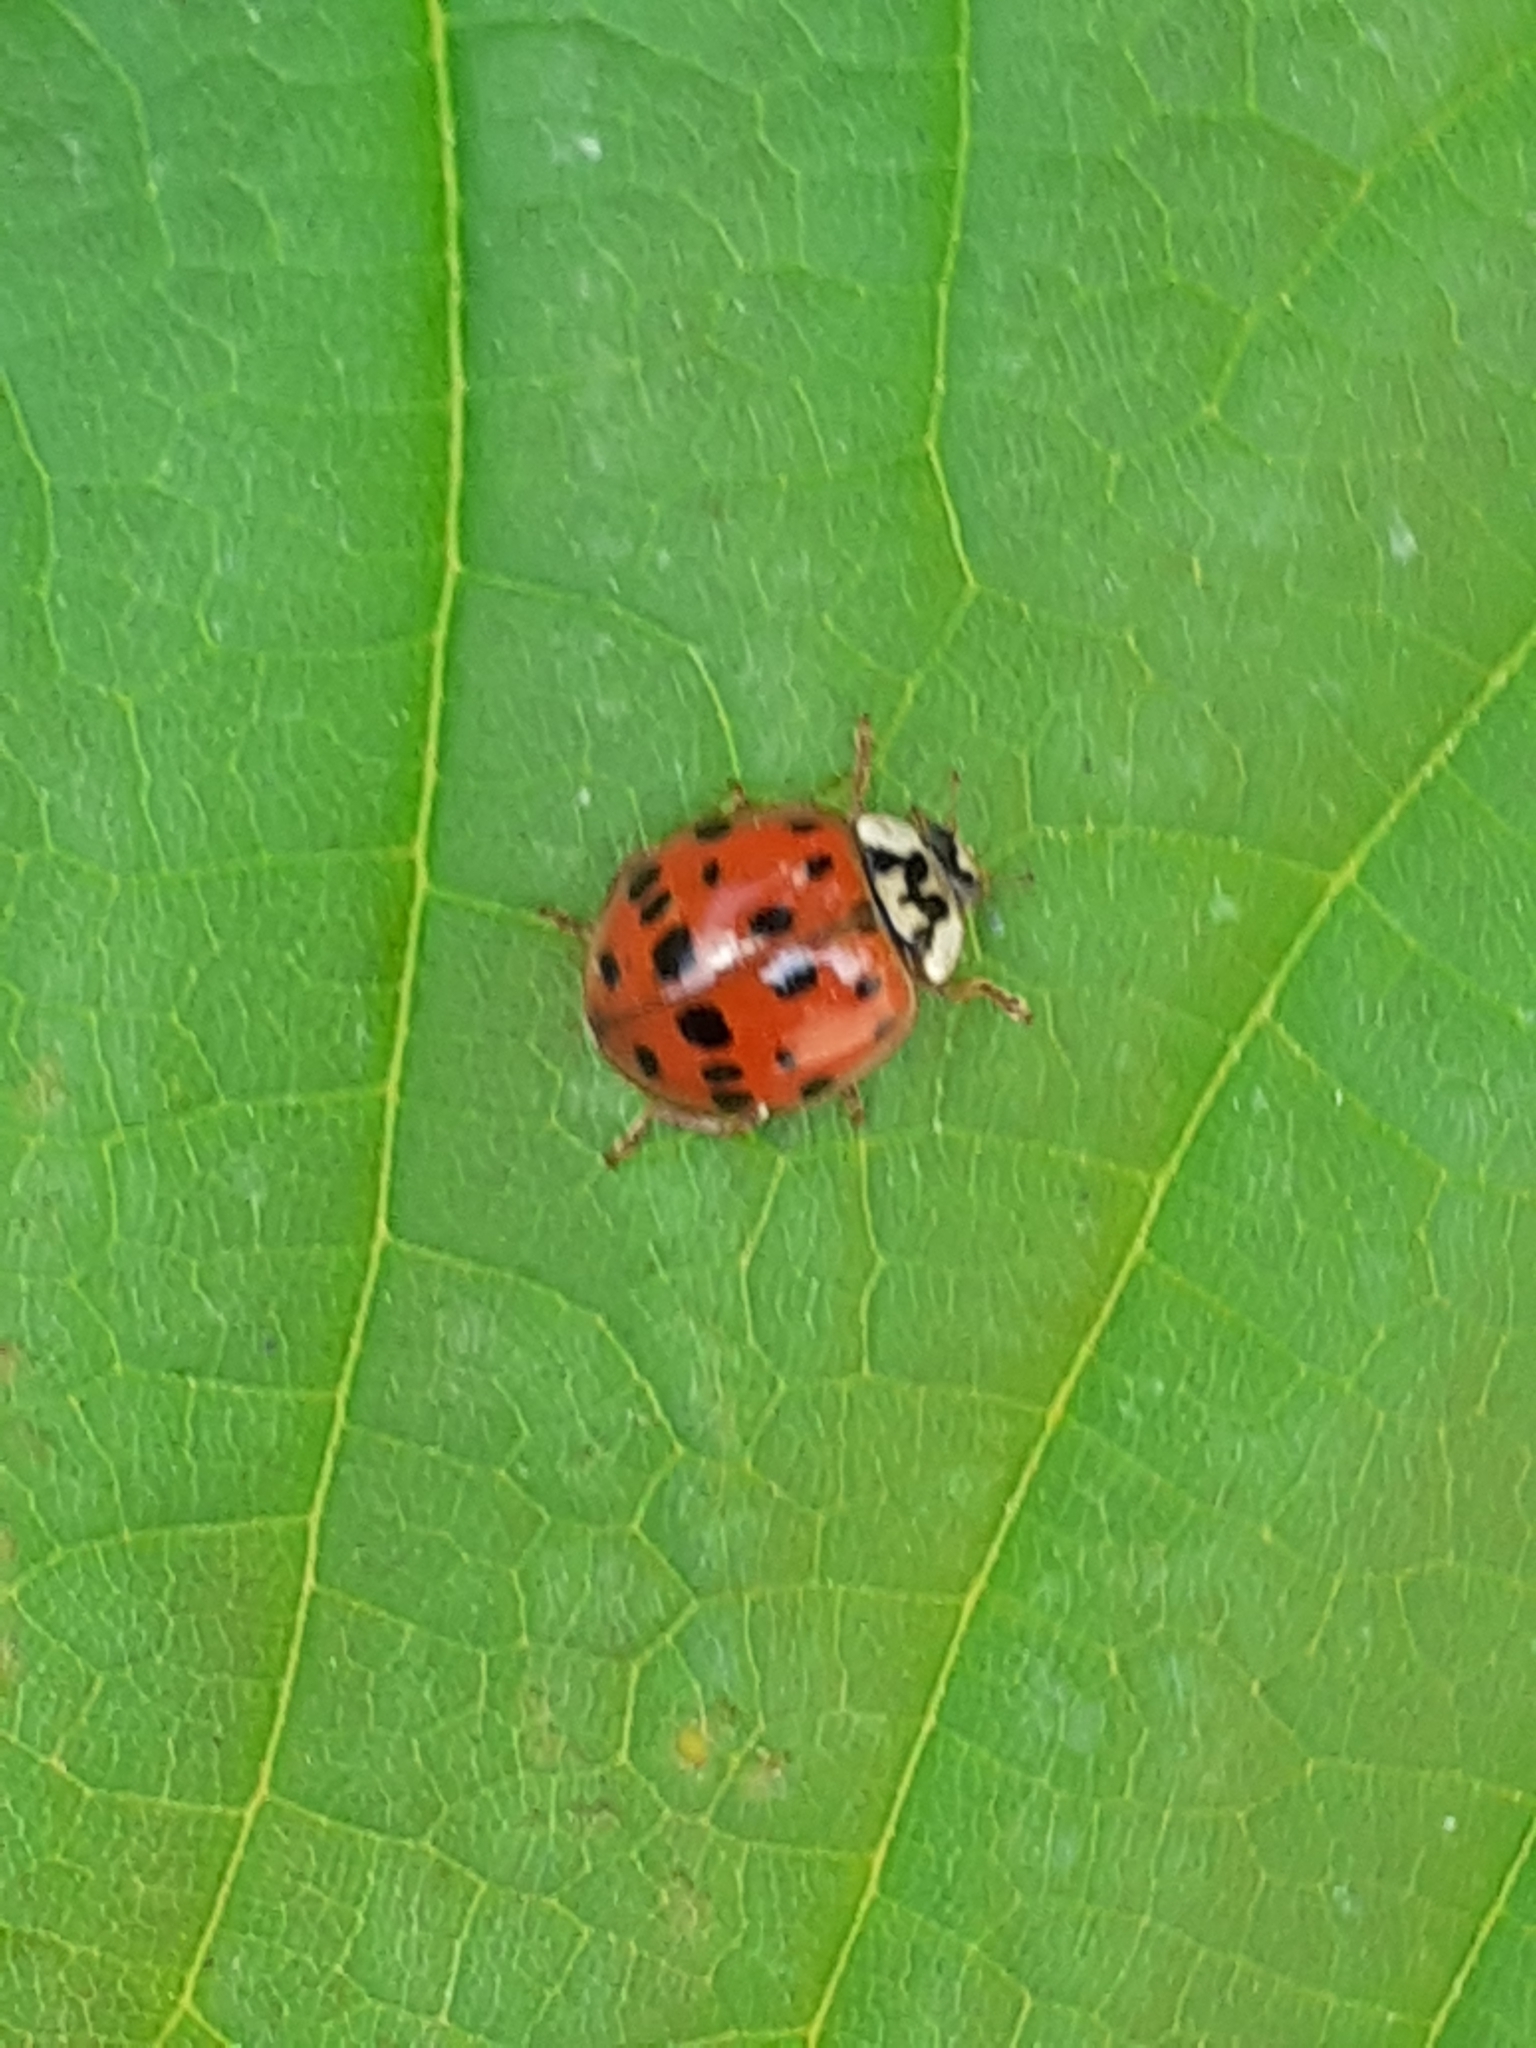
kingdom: Animalia
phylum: Arthropoda
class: Insecta
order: Coleoptera
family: Coccinellidae
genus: Harmonia
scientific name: Harmonia axyridis
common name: Harlequin ladybird
